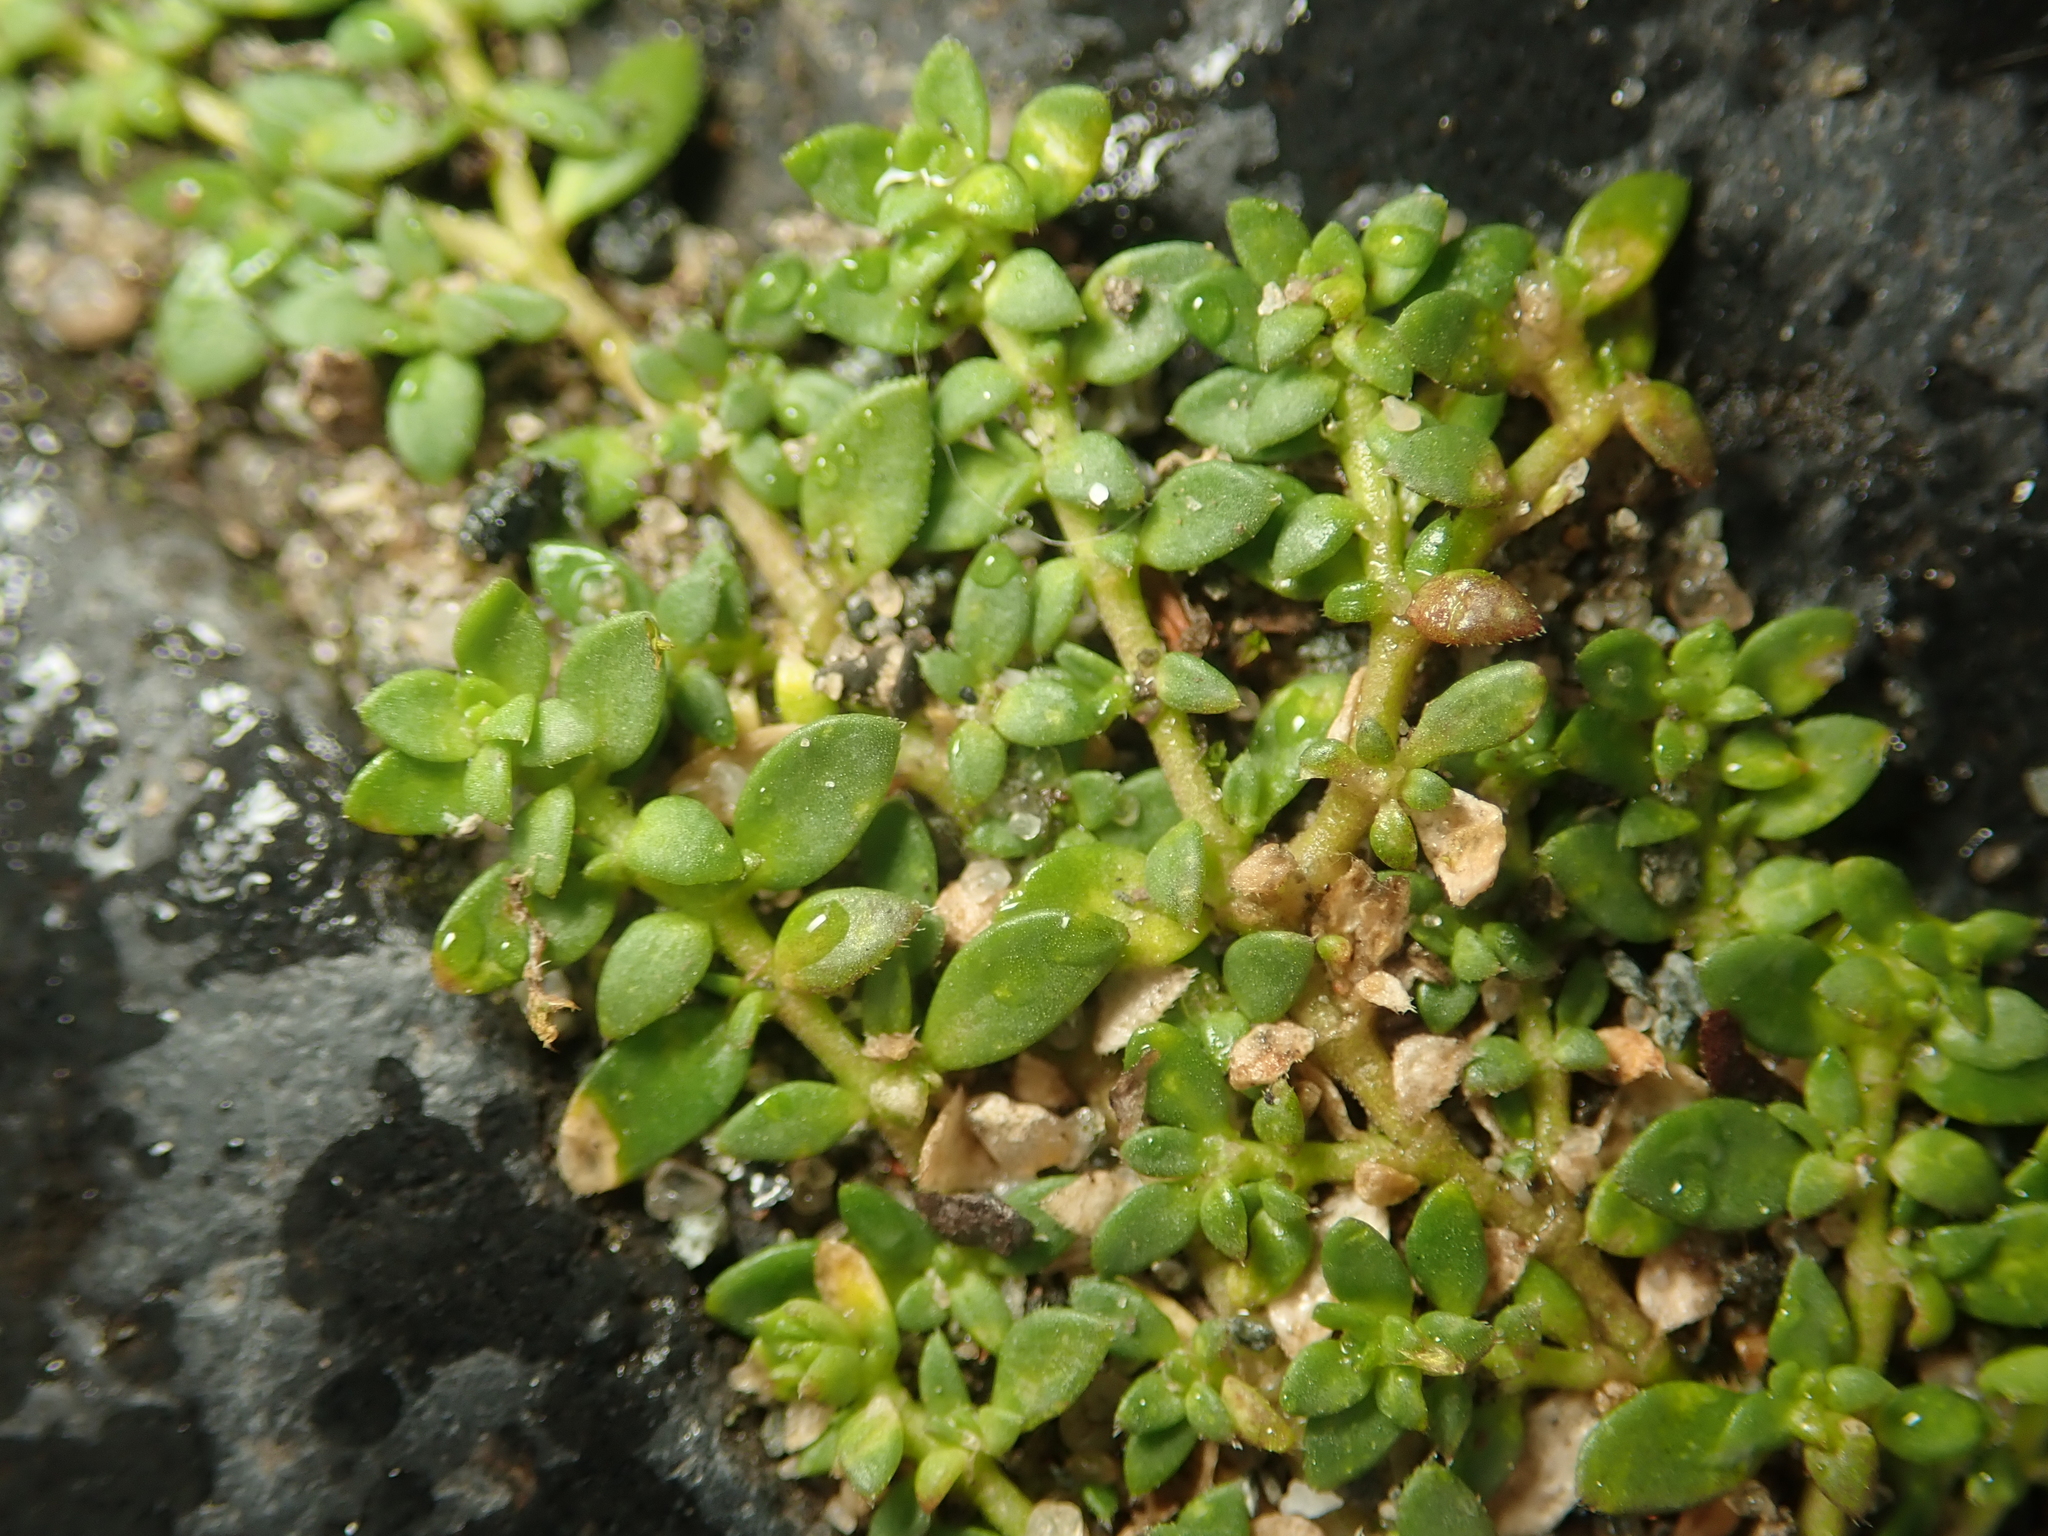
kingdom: Plantae
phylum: Tracheophyta
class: Magnoliopsida
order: Caryophyllales
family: Caryophyllaceae
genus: Herniaria
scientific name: Herniaria glabra
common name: Smooth rupturewort
